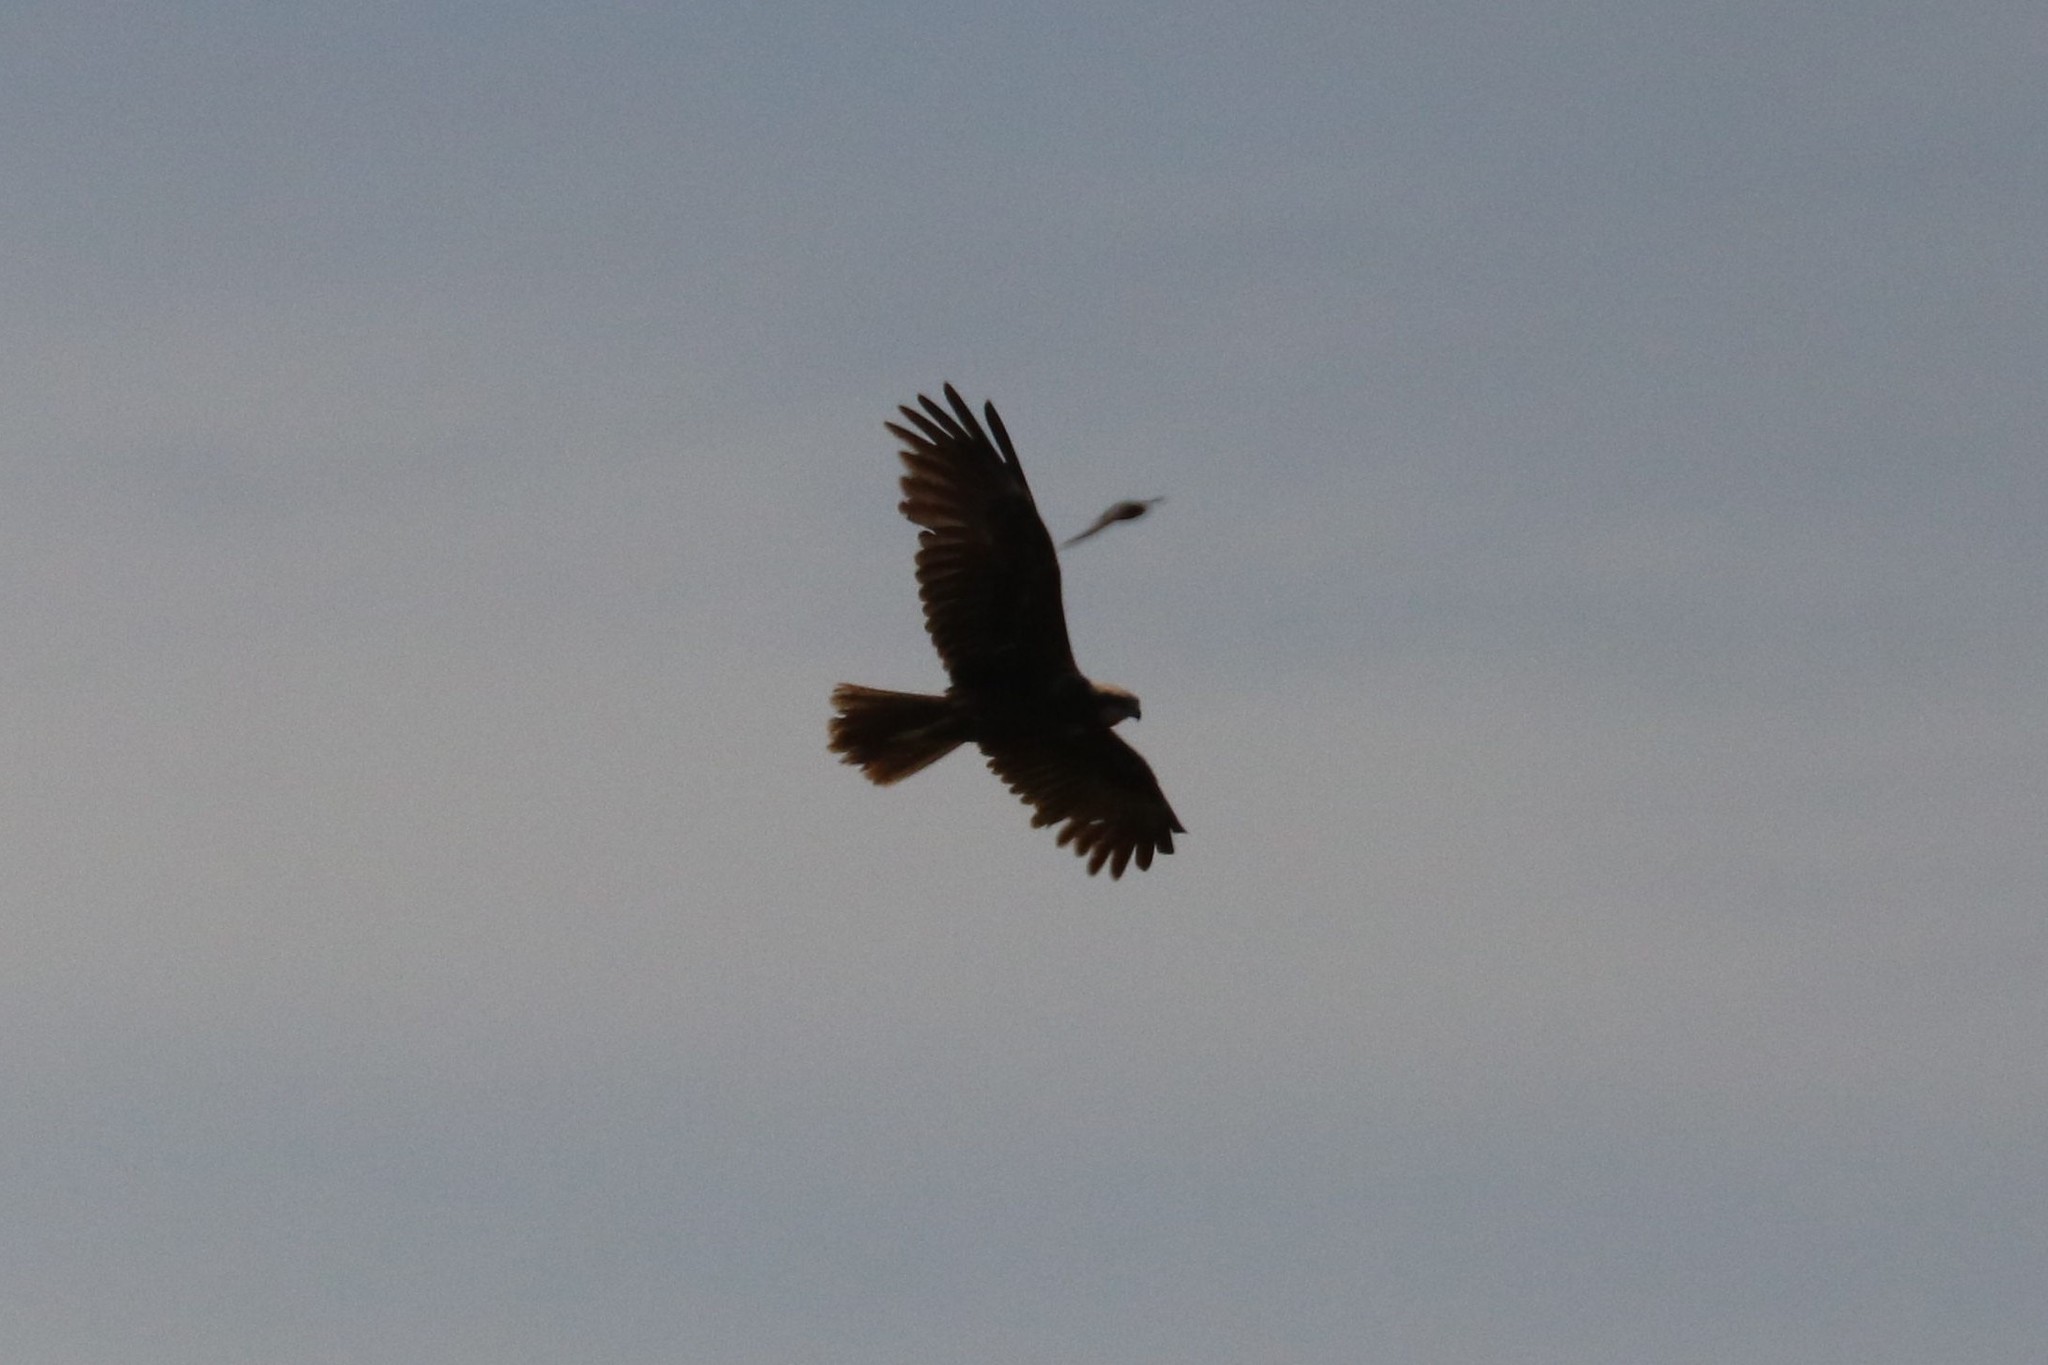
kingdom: Animalia
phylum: Chordata
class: Aves
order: Accipitriformes
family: Accipitridae
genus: Circus
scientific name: Circus aeruginosus
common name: Western marsh harrier
